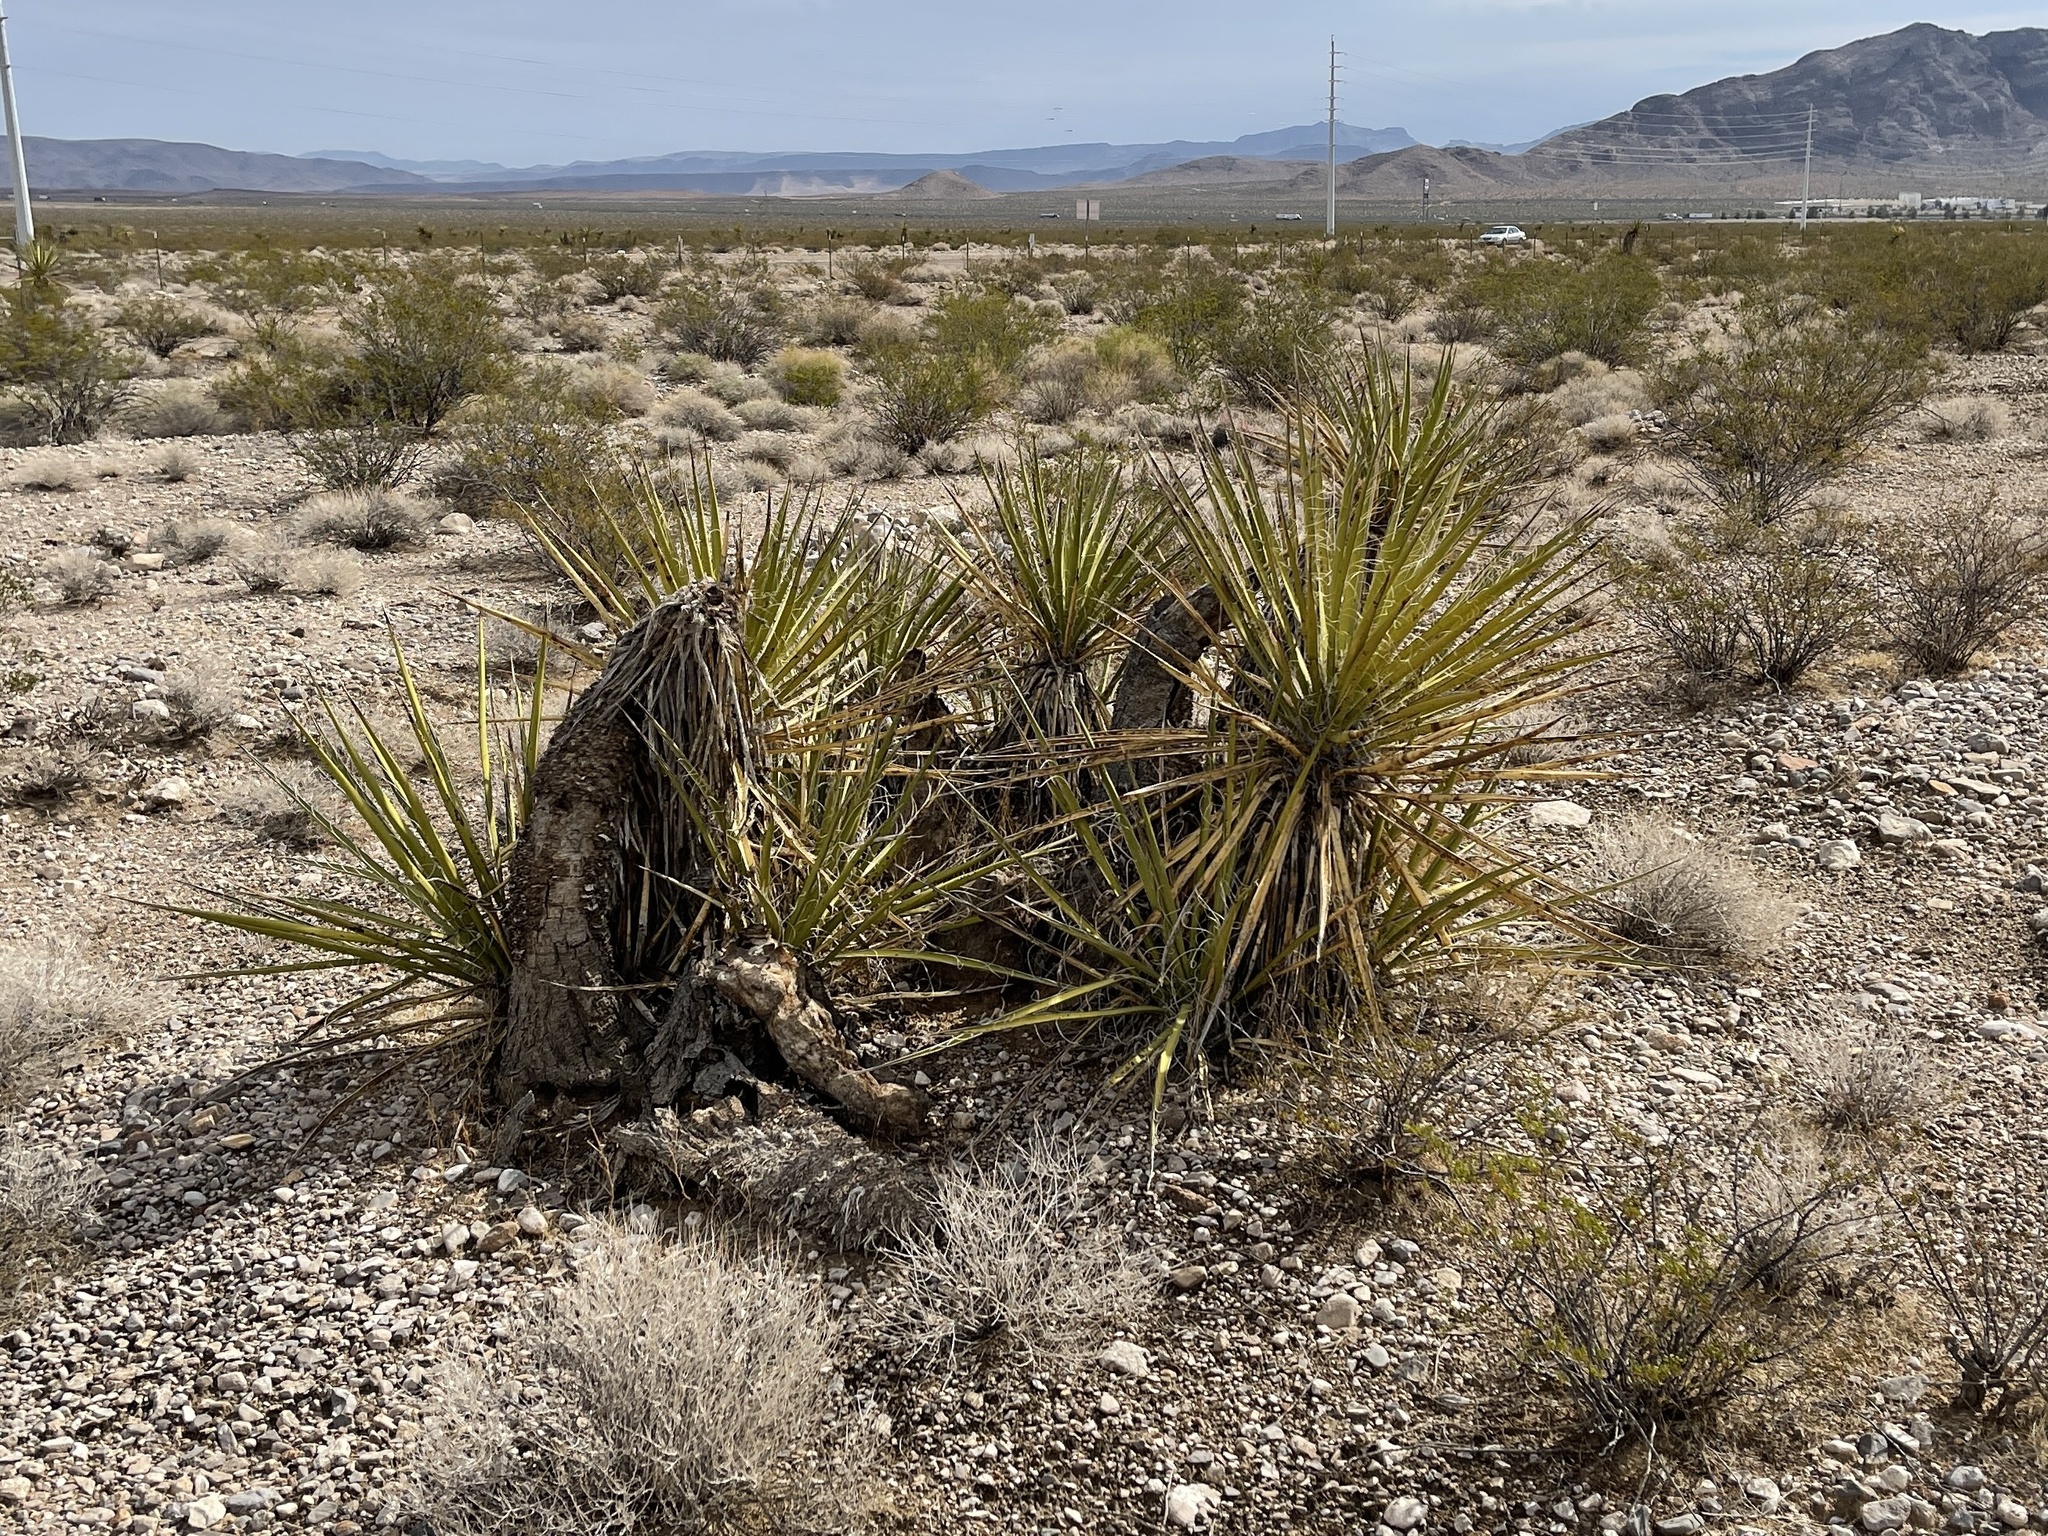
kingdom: Plantae
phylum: Tracheophyta
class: Liliopsida
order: Asparagales
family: Asparagaceae
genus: Yucca
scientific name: Yucca schidigera
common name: Mojave yucca
